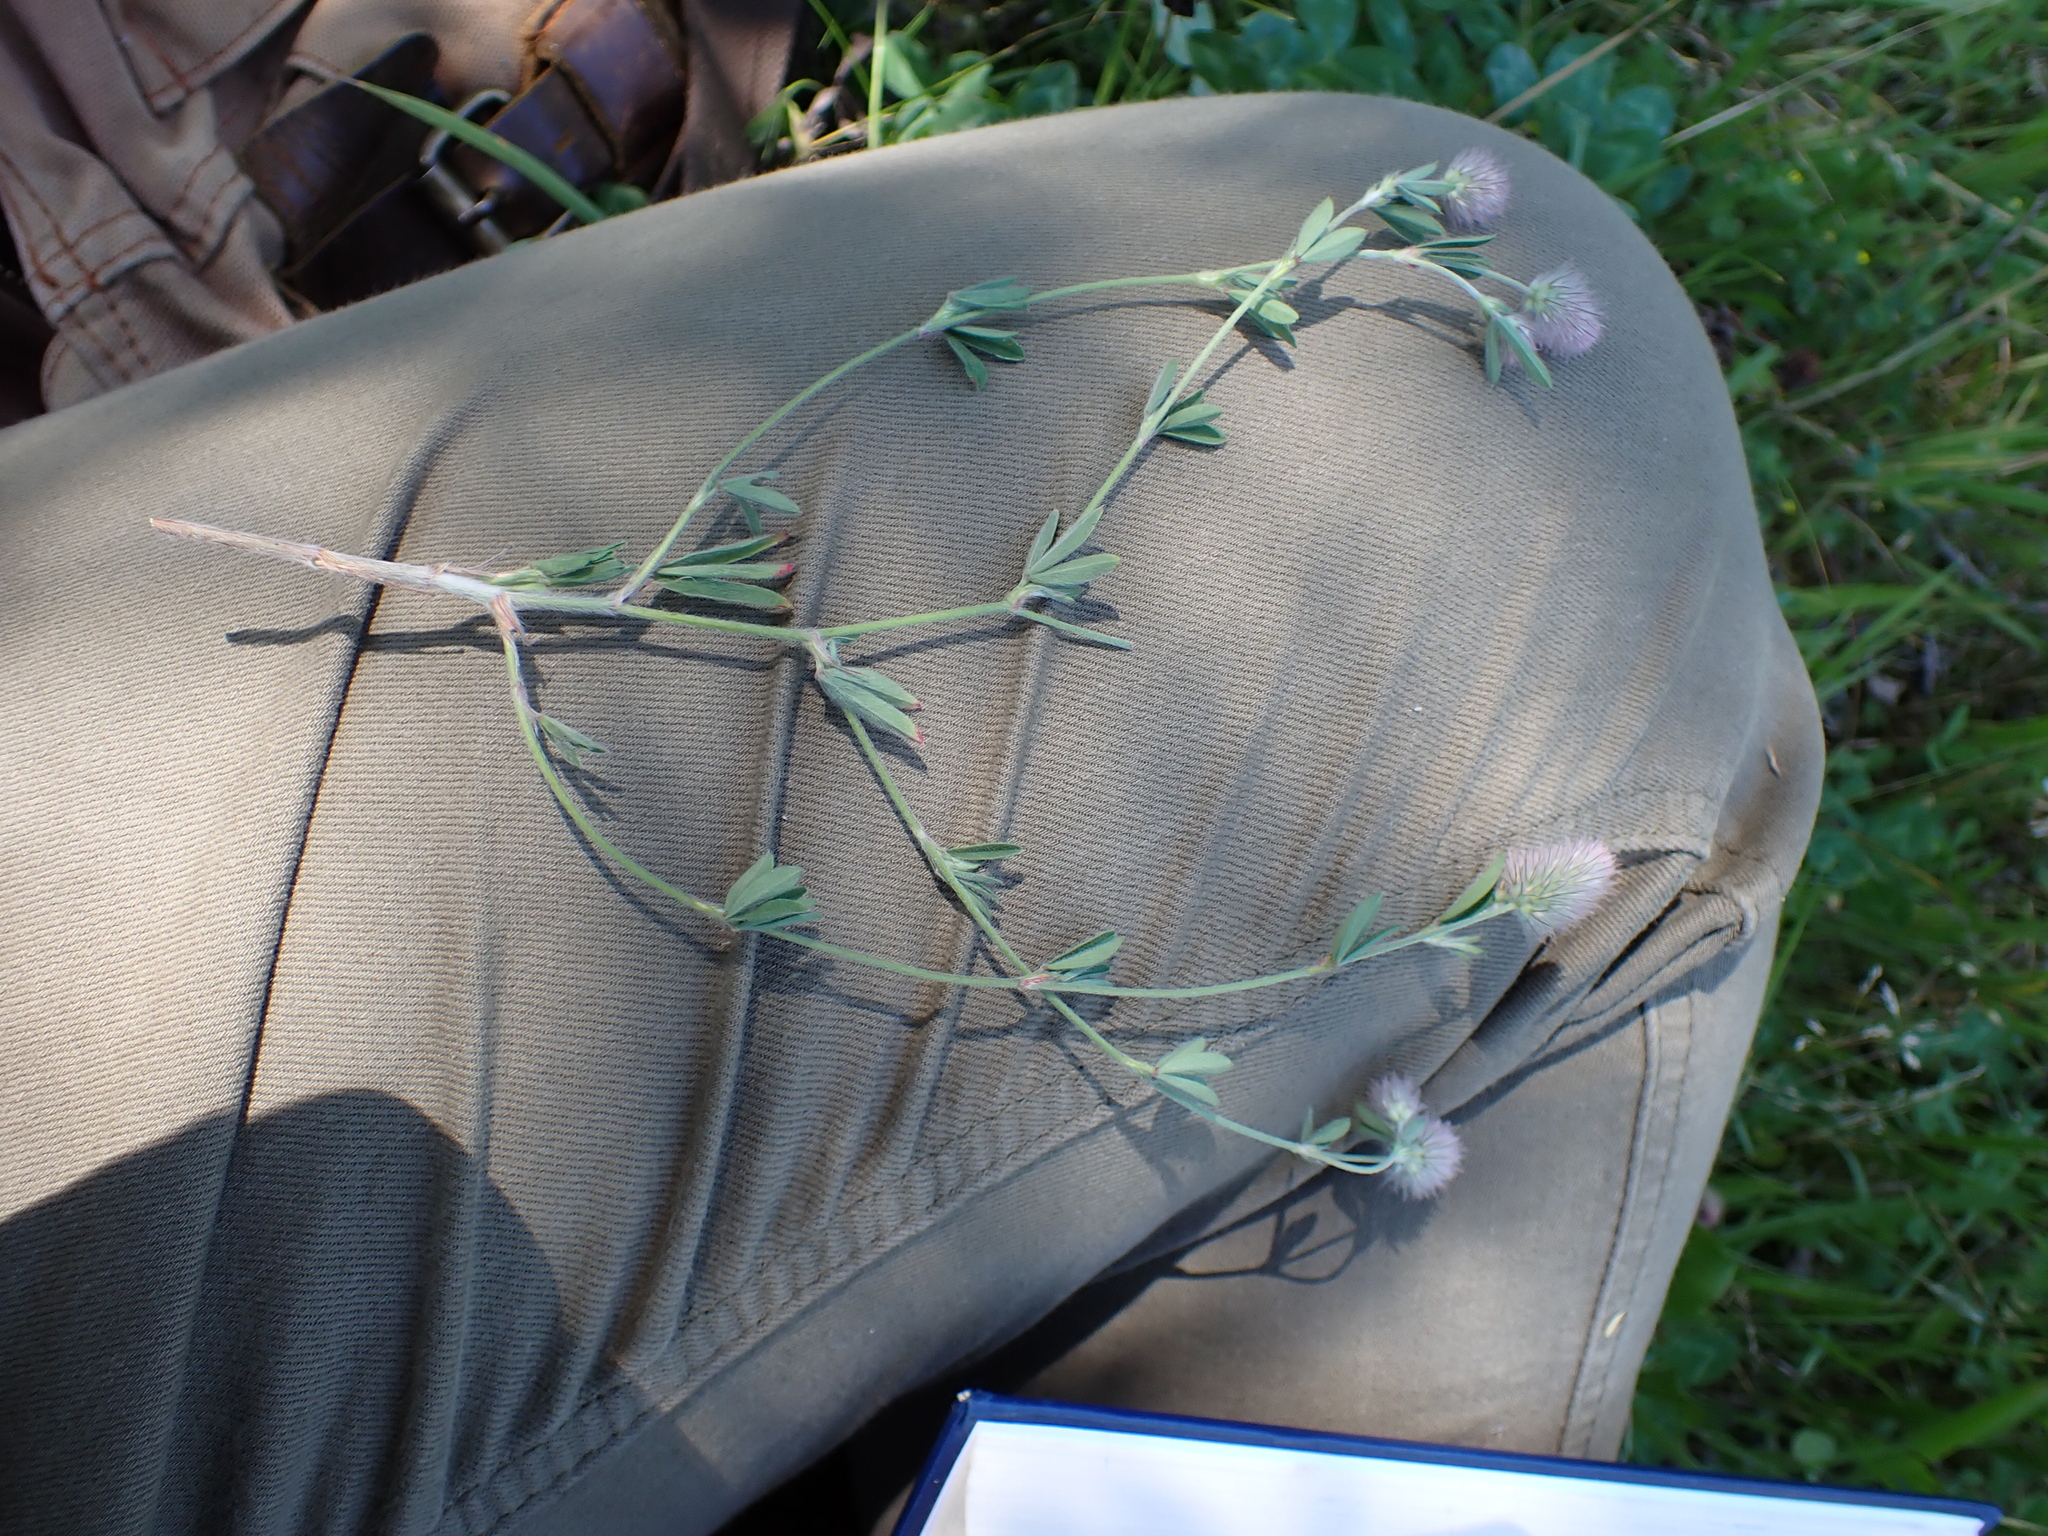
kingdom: Plantae
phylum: Tracheophyta
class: Magnoliopsida
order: Fabales
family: Fabaceae
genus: Trifolium
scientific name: Trifolium arvense
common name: Hare's-foot clover
